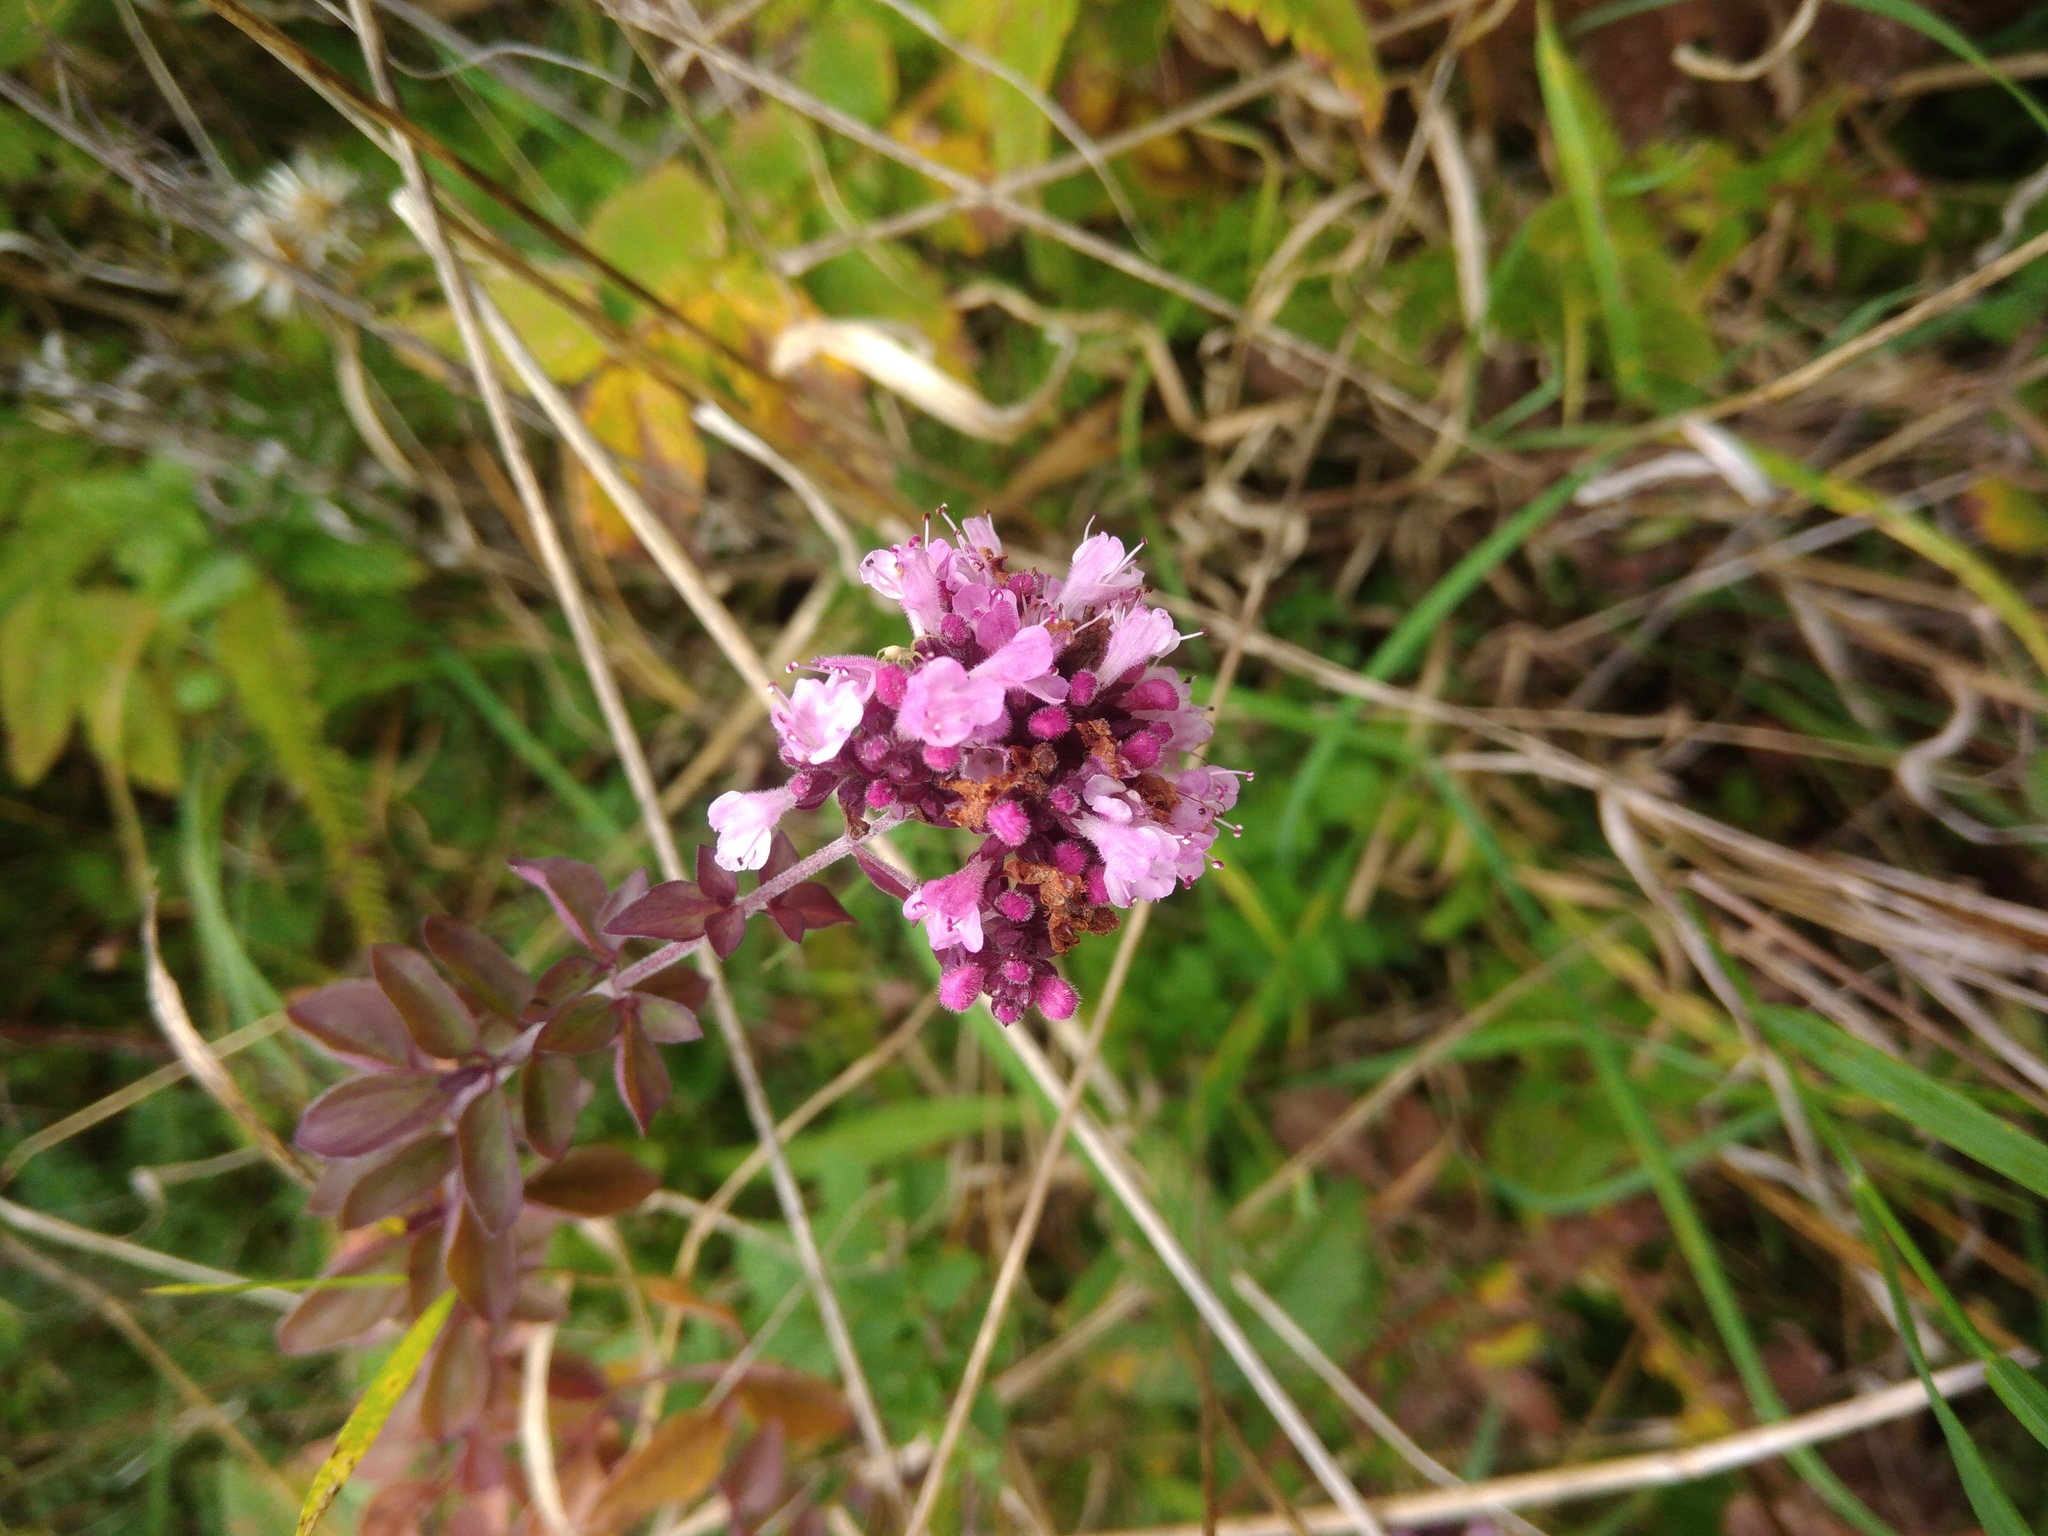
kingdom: Plantae
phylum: Tracheophyta
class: Magnoliopsida
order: Lamiales
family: Lamiaceae
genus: Origanum
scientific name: Origanum vulgare
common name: Wild marjoram
